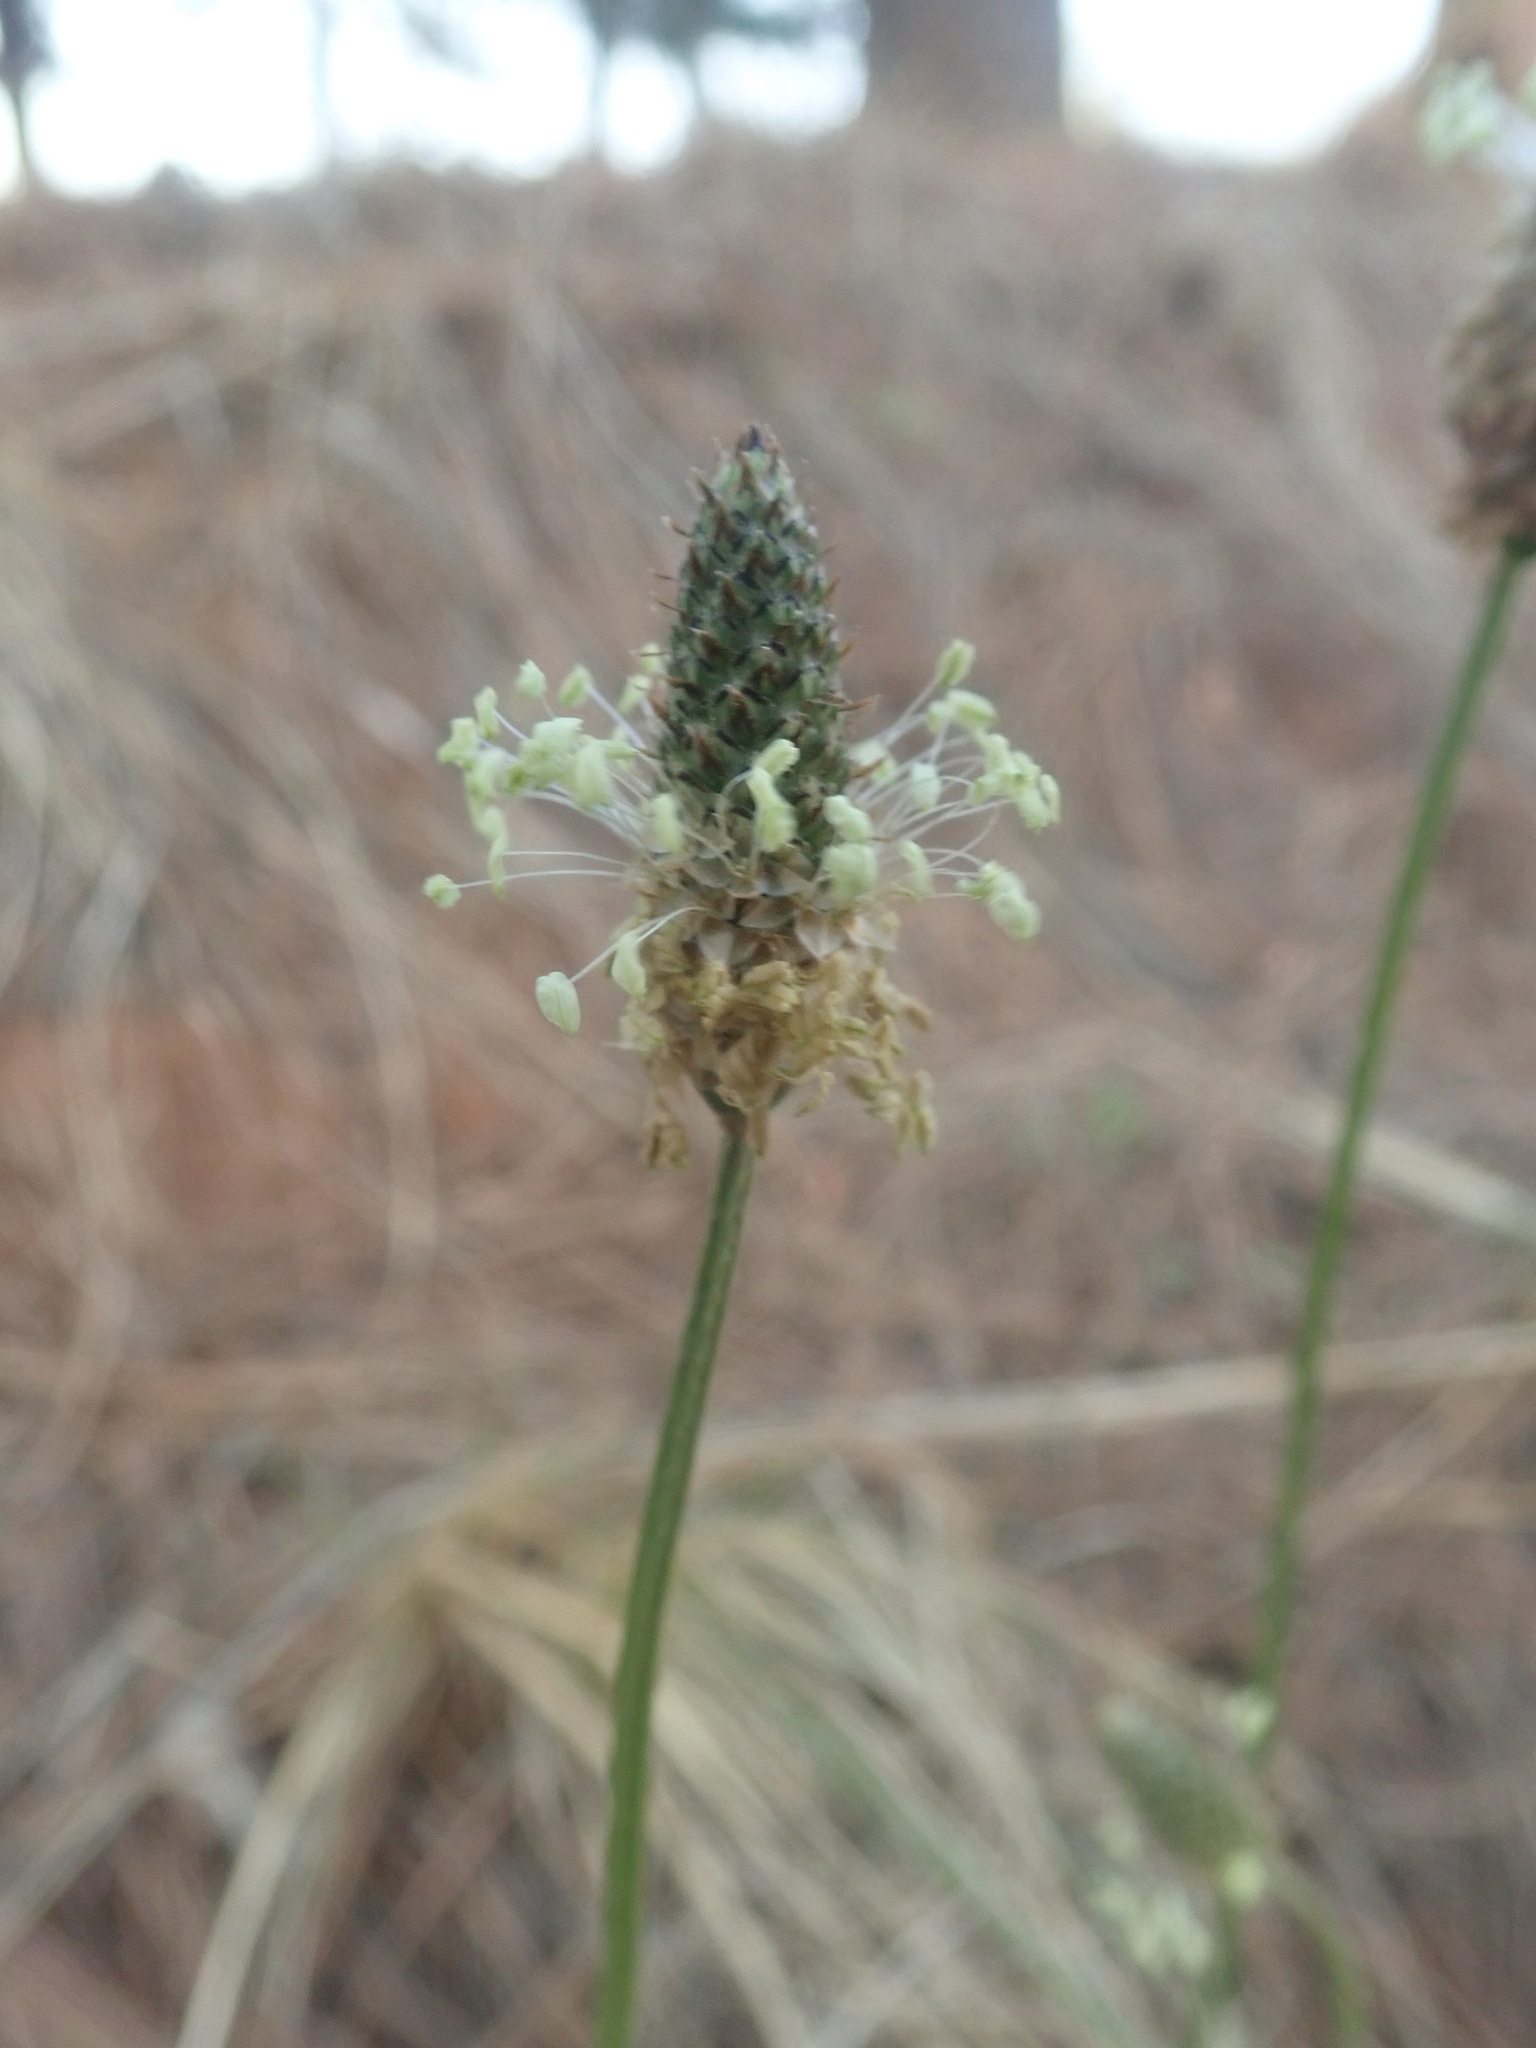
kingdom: Plantae
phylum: Tracheophyta
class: Magnoliopsida
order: Lamiales
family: Plantaginaceae
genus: Plantago
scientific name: Plantago lanceolata
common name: Ribwort plantain
